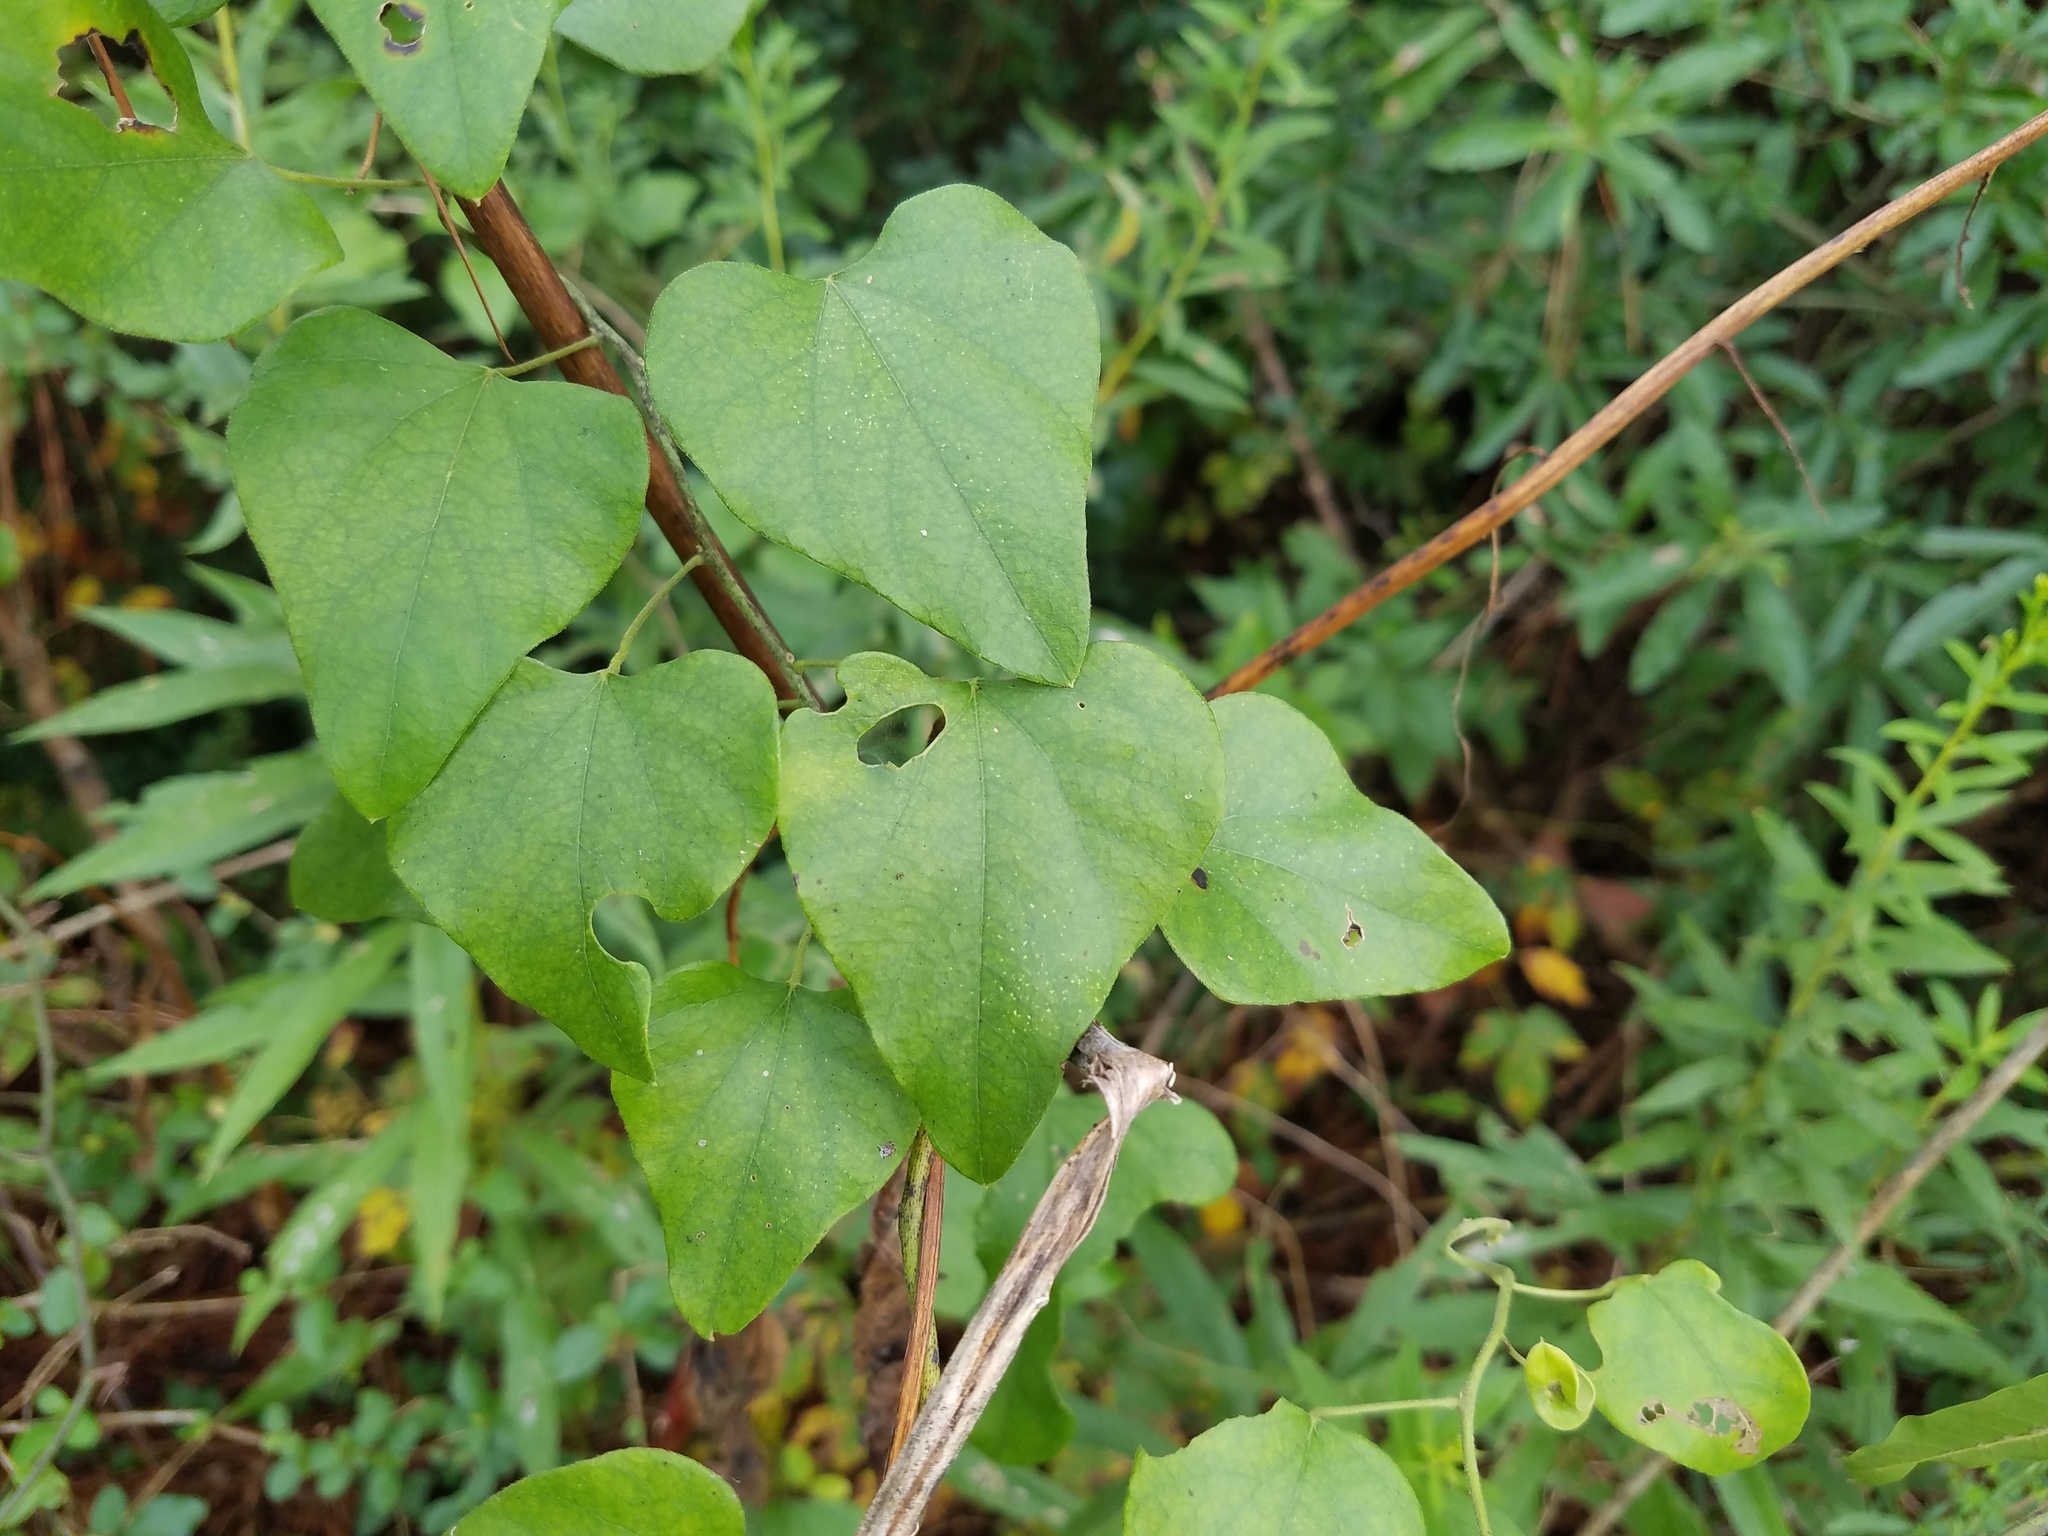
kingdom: Plantae
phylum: Tracheophyta
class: Magnoliopsida
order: Ranunculales
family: Menispermaceae
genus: Cocculus
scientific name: Cocculus carolinus
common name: Carolina moonseed
